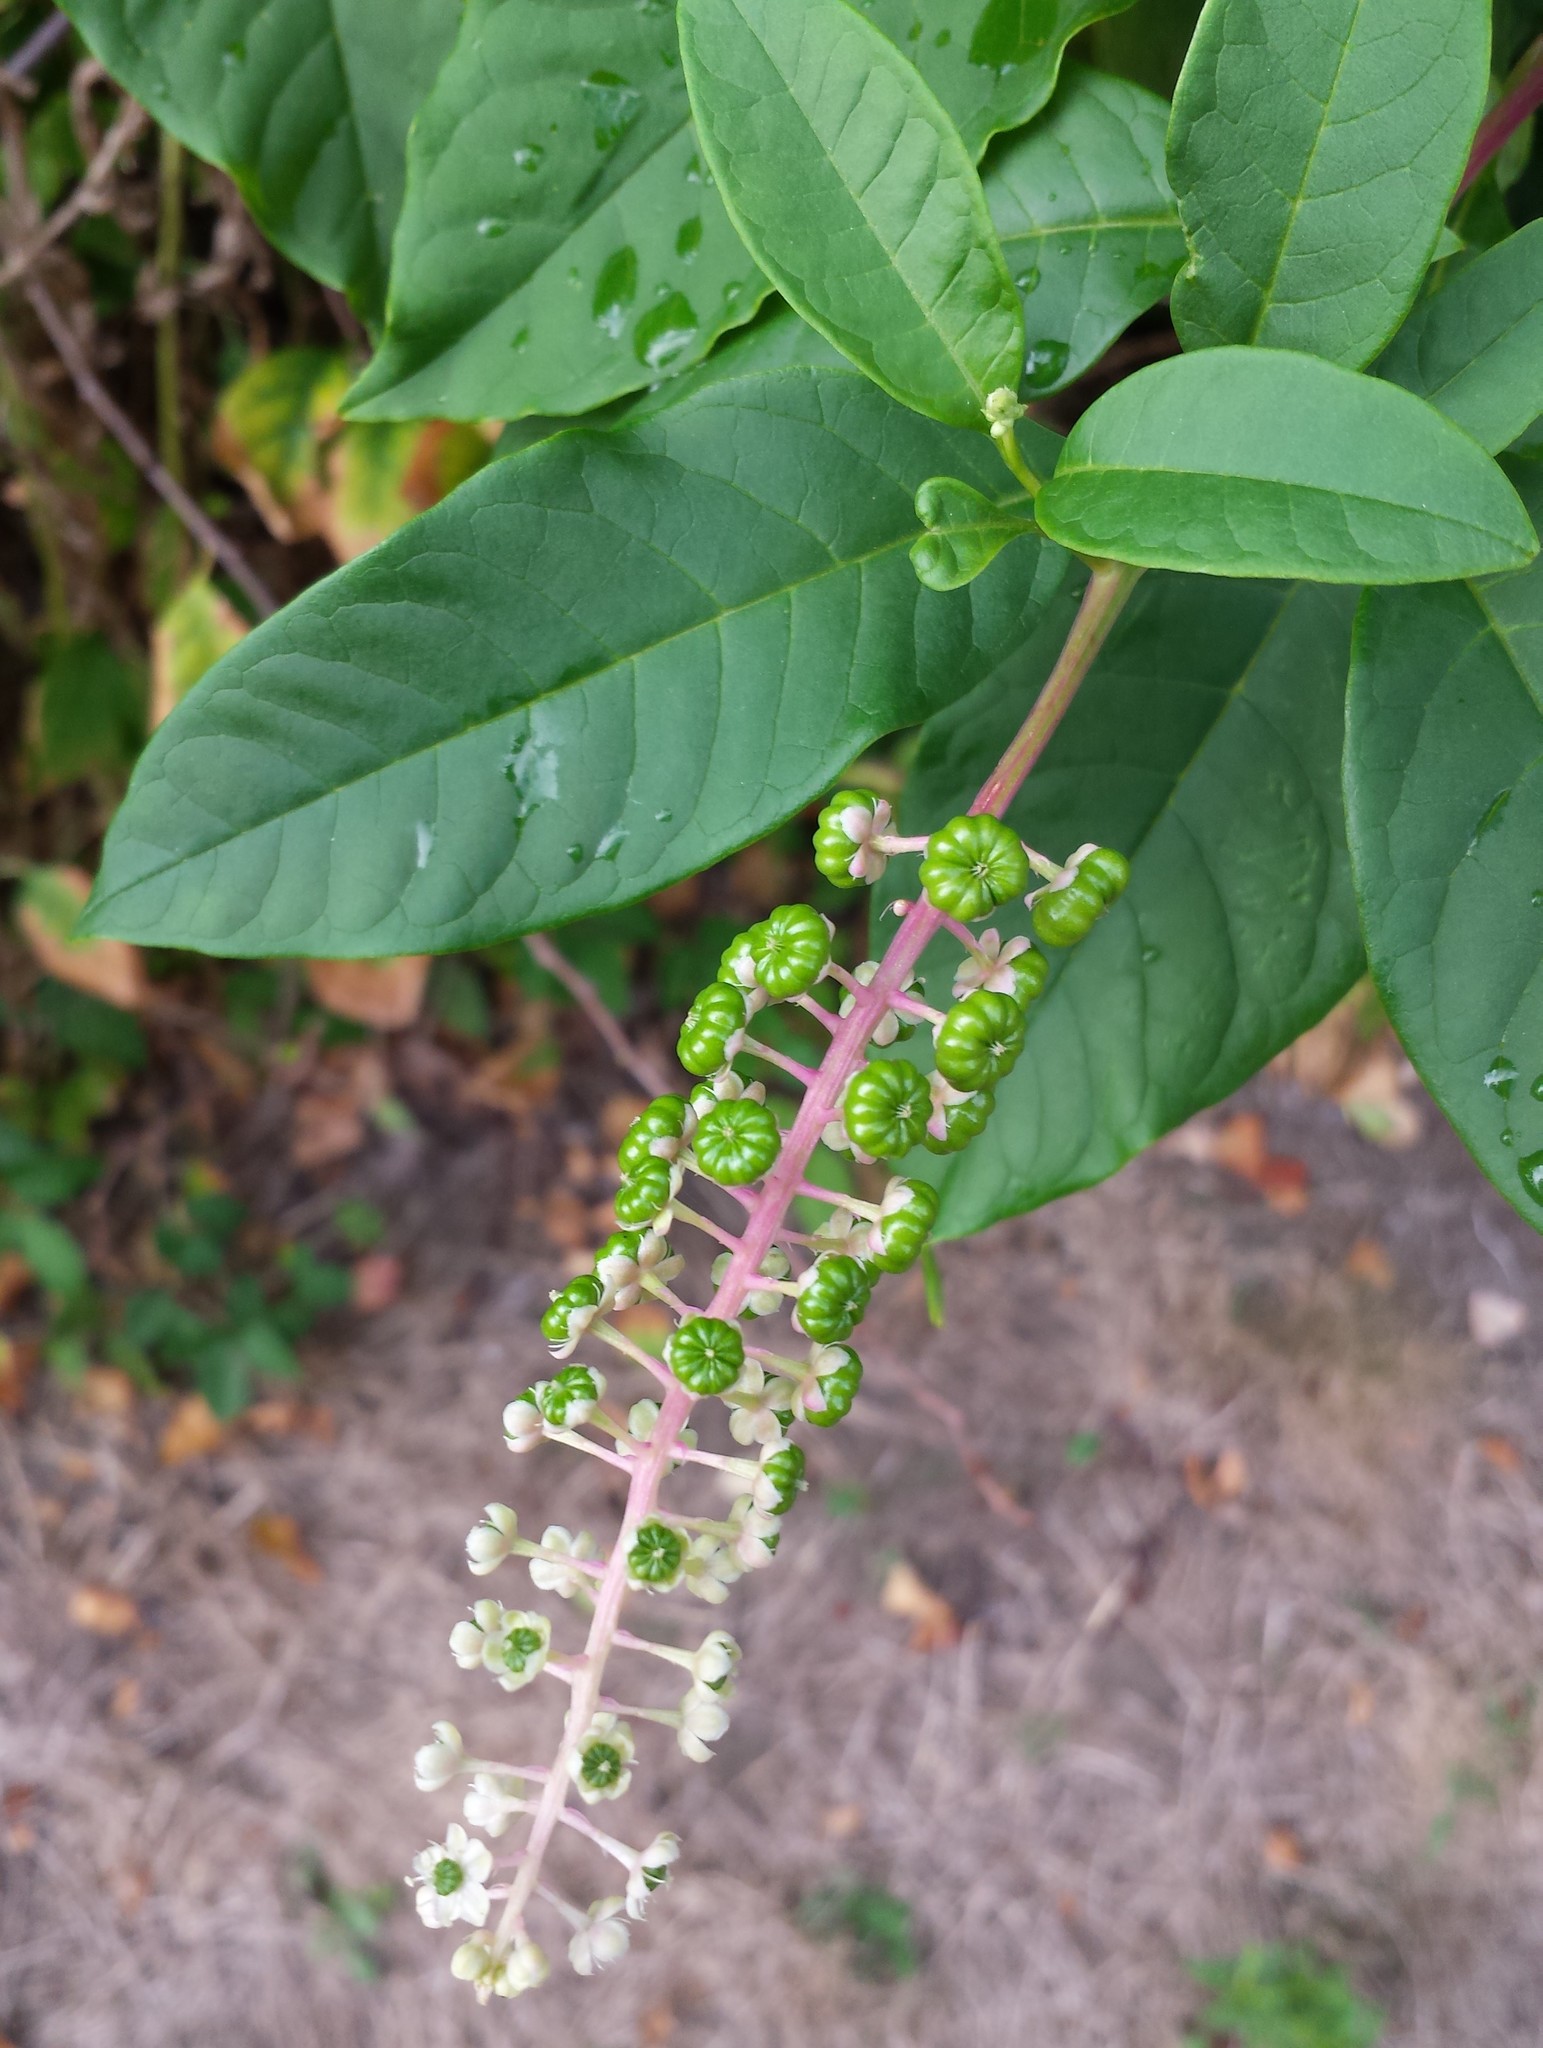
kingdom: Plantae
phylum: Tracheophyta
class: Magnoliopsida
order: Caryophyllales
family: Phytolaccaceae
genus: Phytolacca
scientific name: Phytolacca americana
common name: American pokeweed
